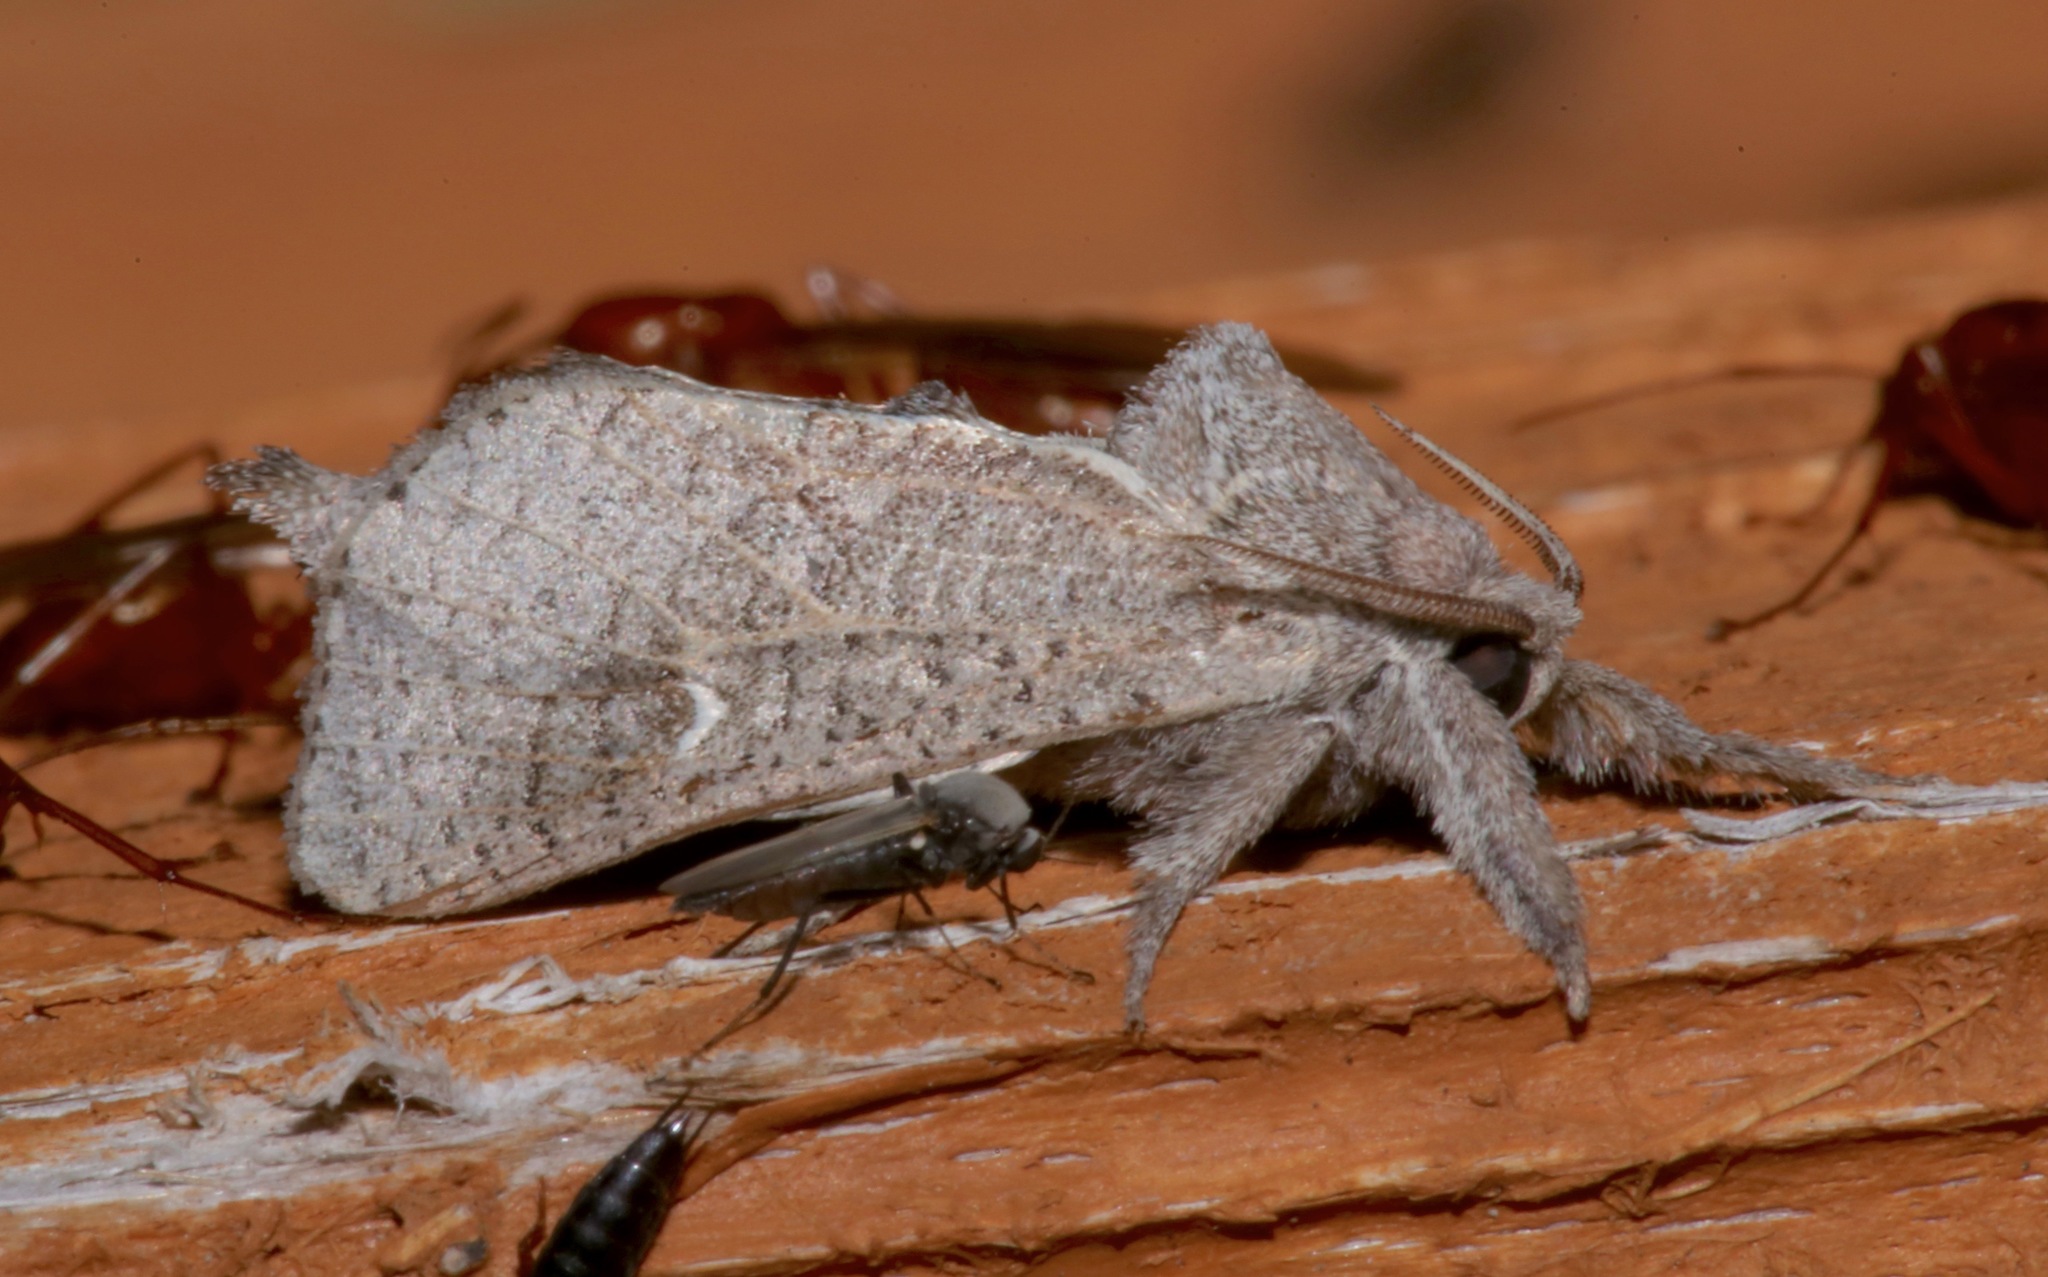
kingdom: Animalia
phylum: Arthropoda
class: Insecta
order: Lepidoptera
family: Cossidae
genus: Givira
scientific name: Givira anna
